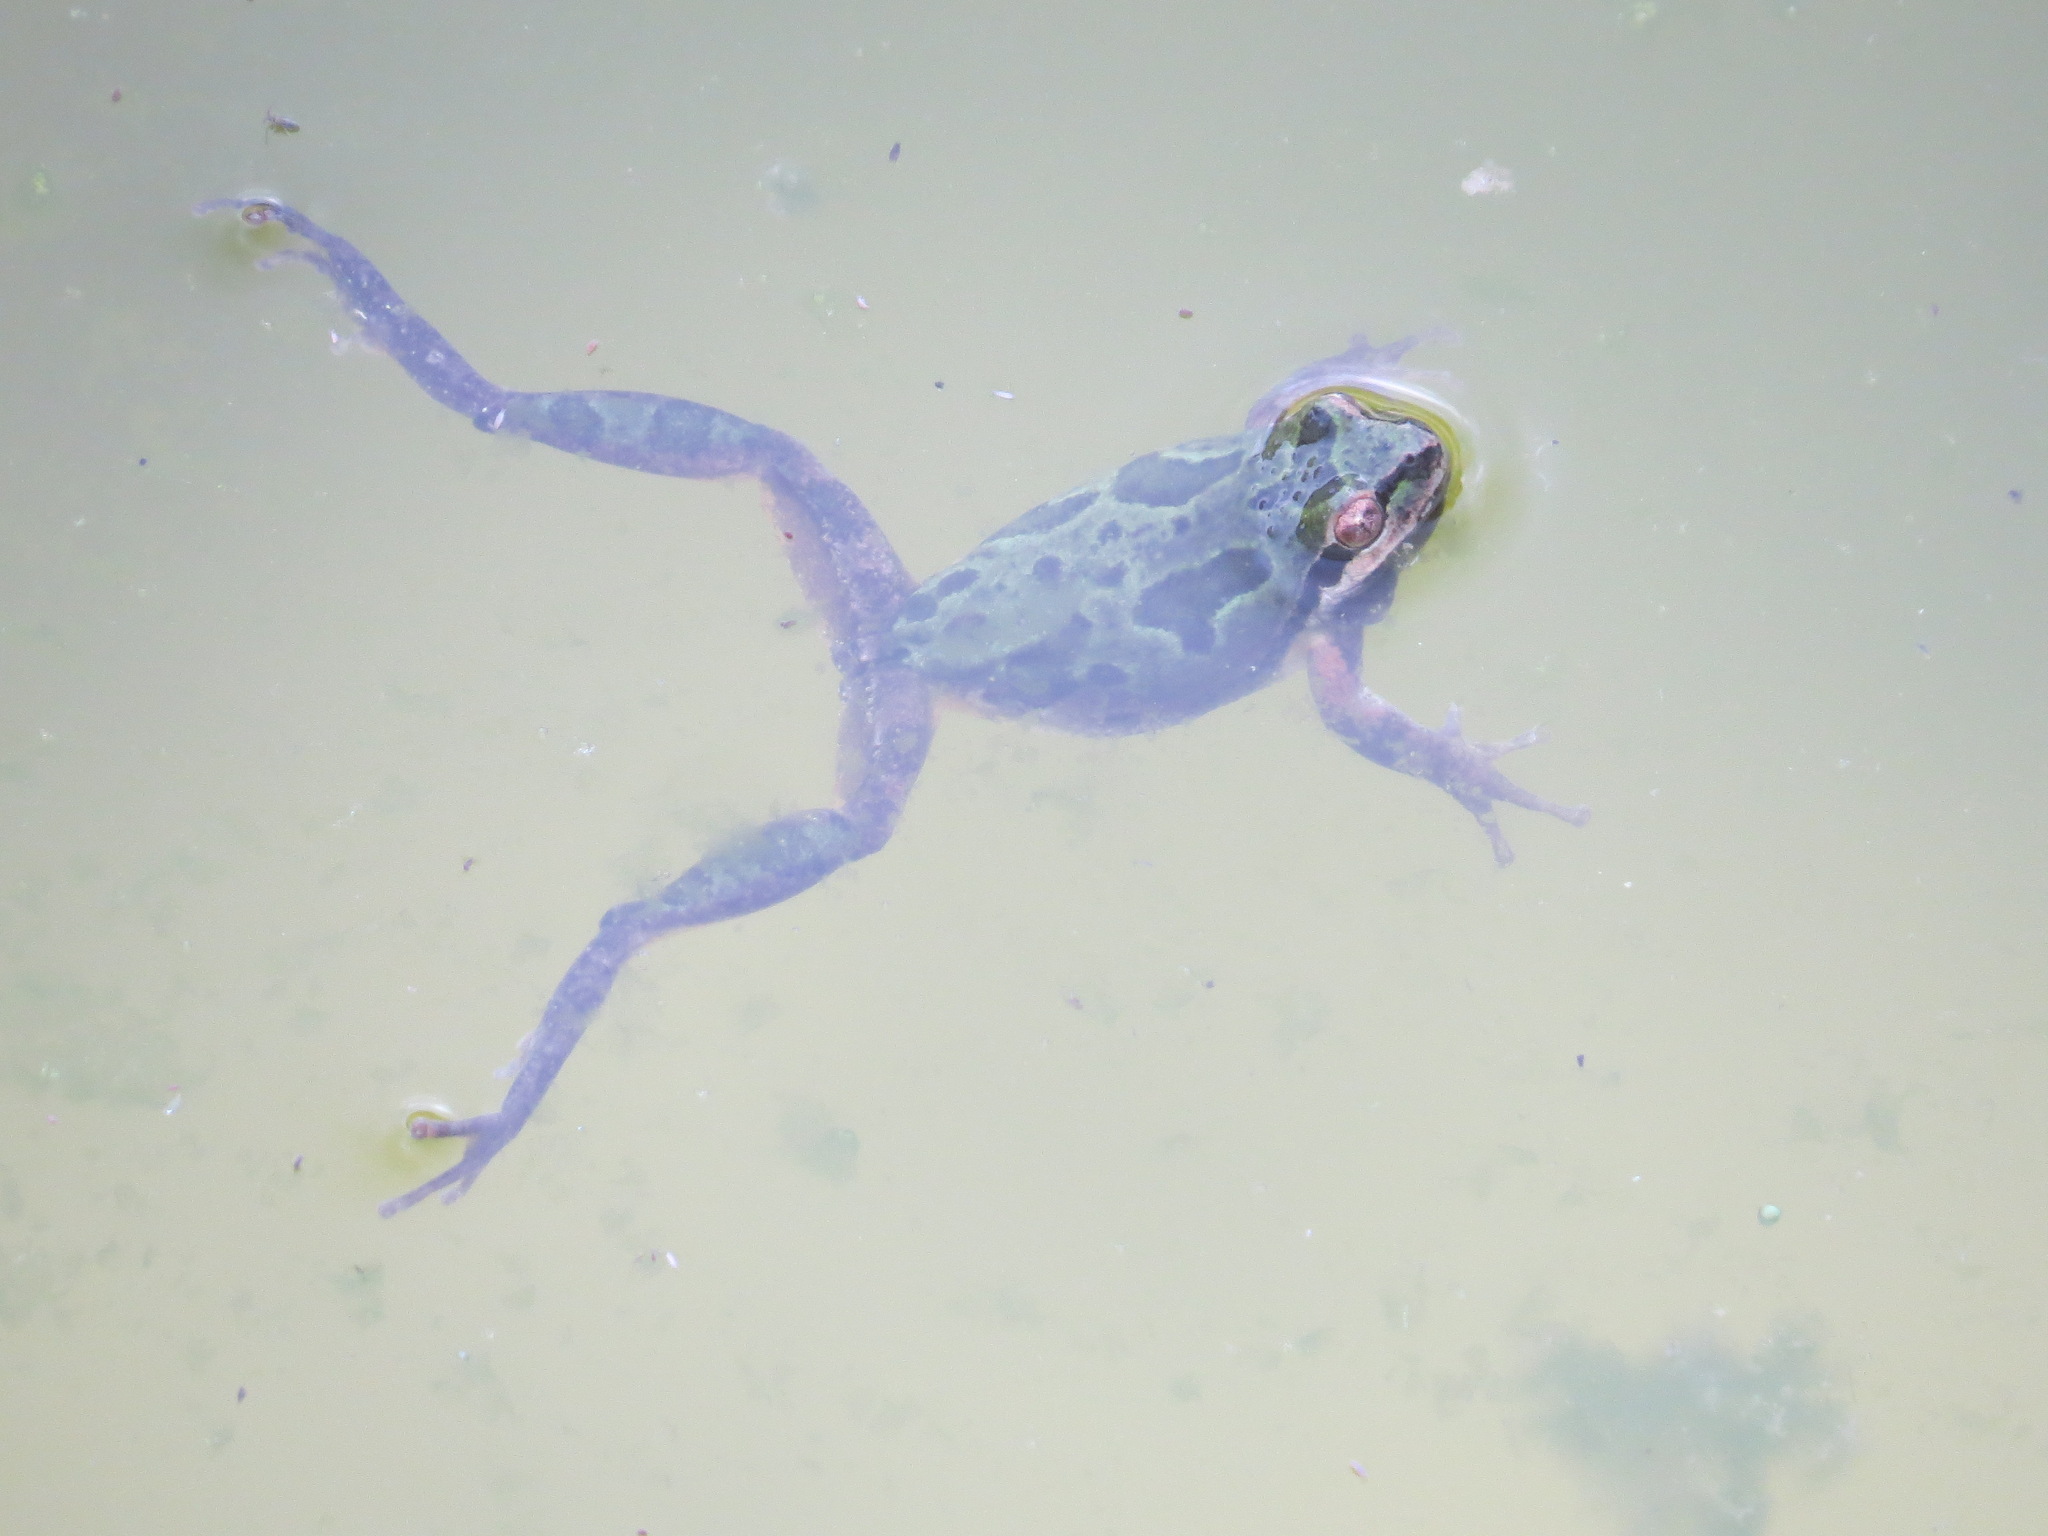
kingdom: Animalia
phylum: Chordata
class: Amphibia
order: Anura
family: Hylidae
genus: Pseudacris
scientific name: Pseudacris regilla
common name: Pacific chorus frog
